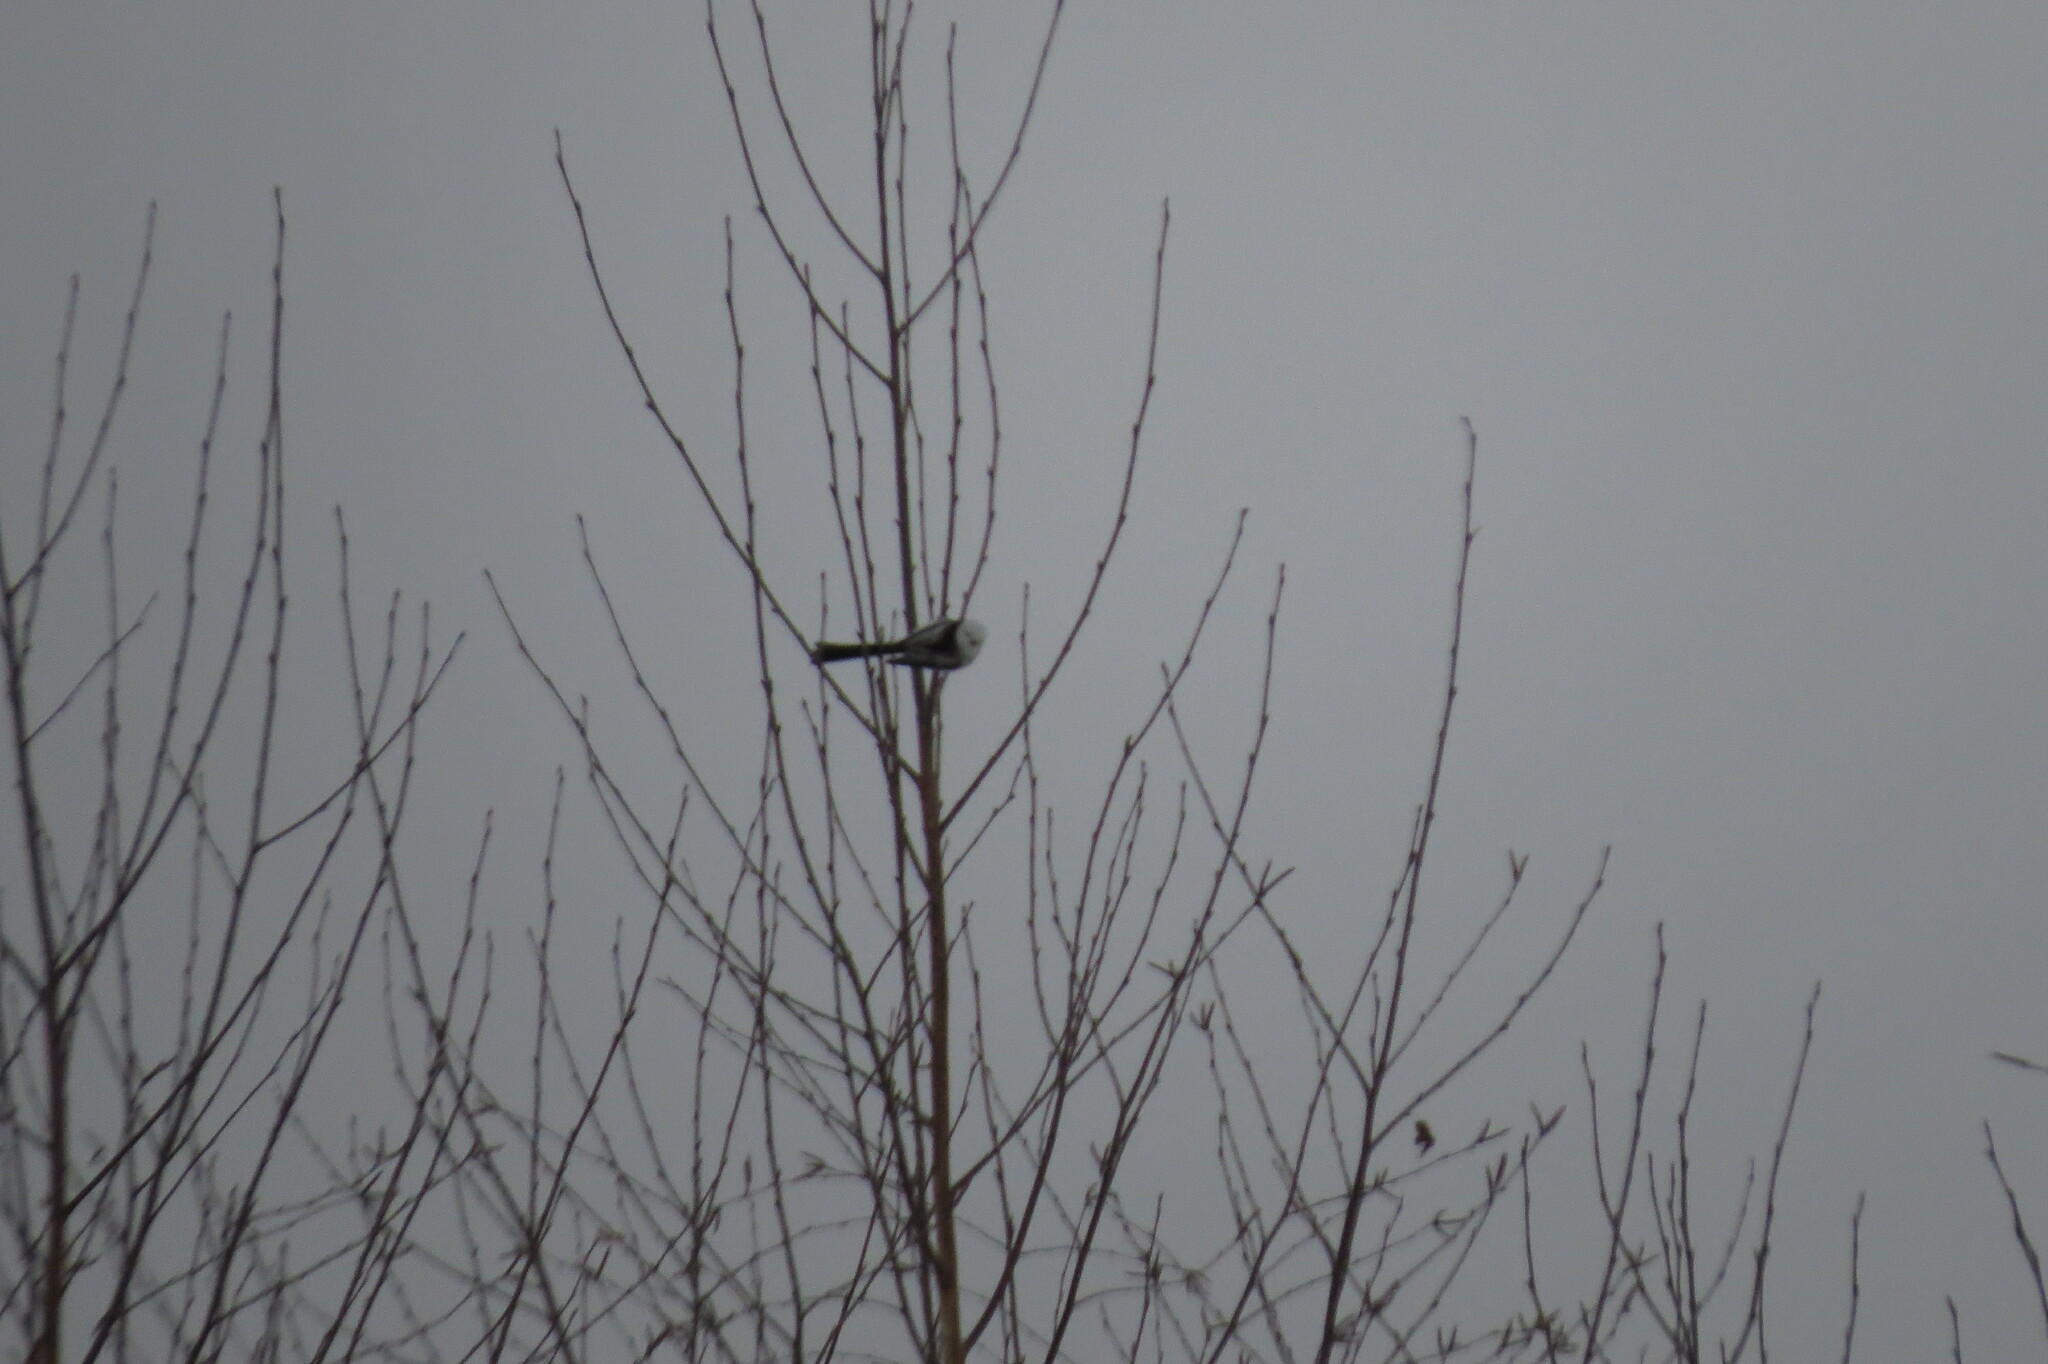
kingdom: Animalia
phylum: Chordata
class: Aves
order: Passeriformes
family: Aegithalidae
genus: Aegithalos
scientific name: Aegithalos caudatus
